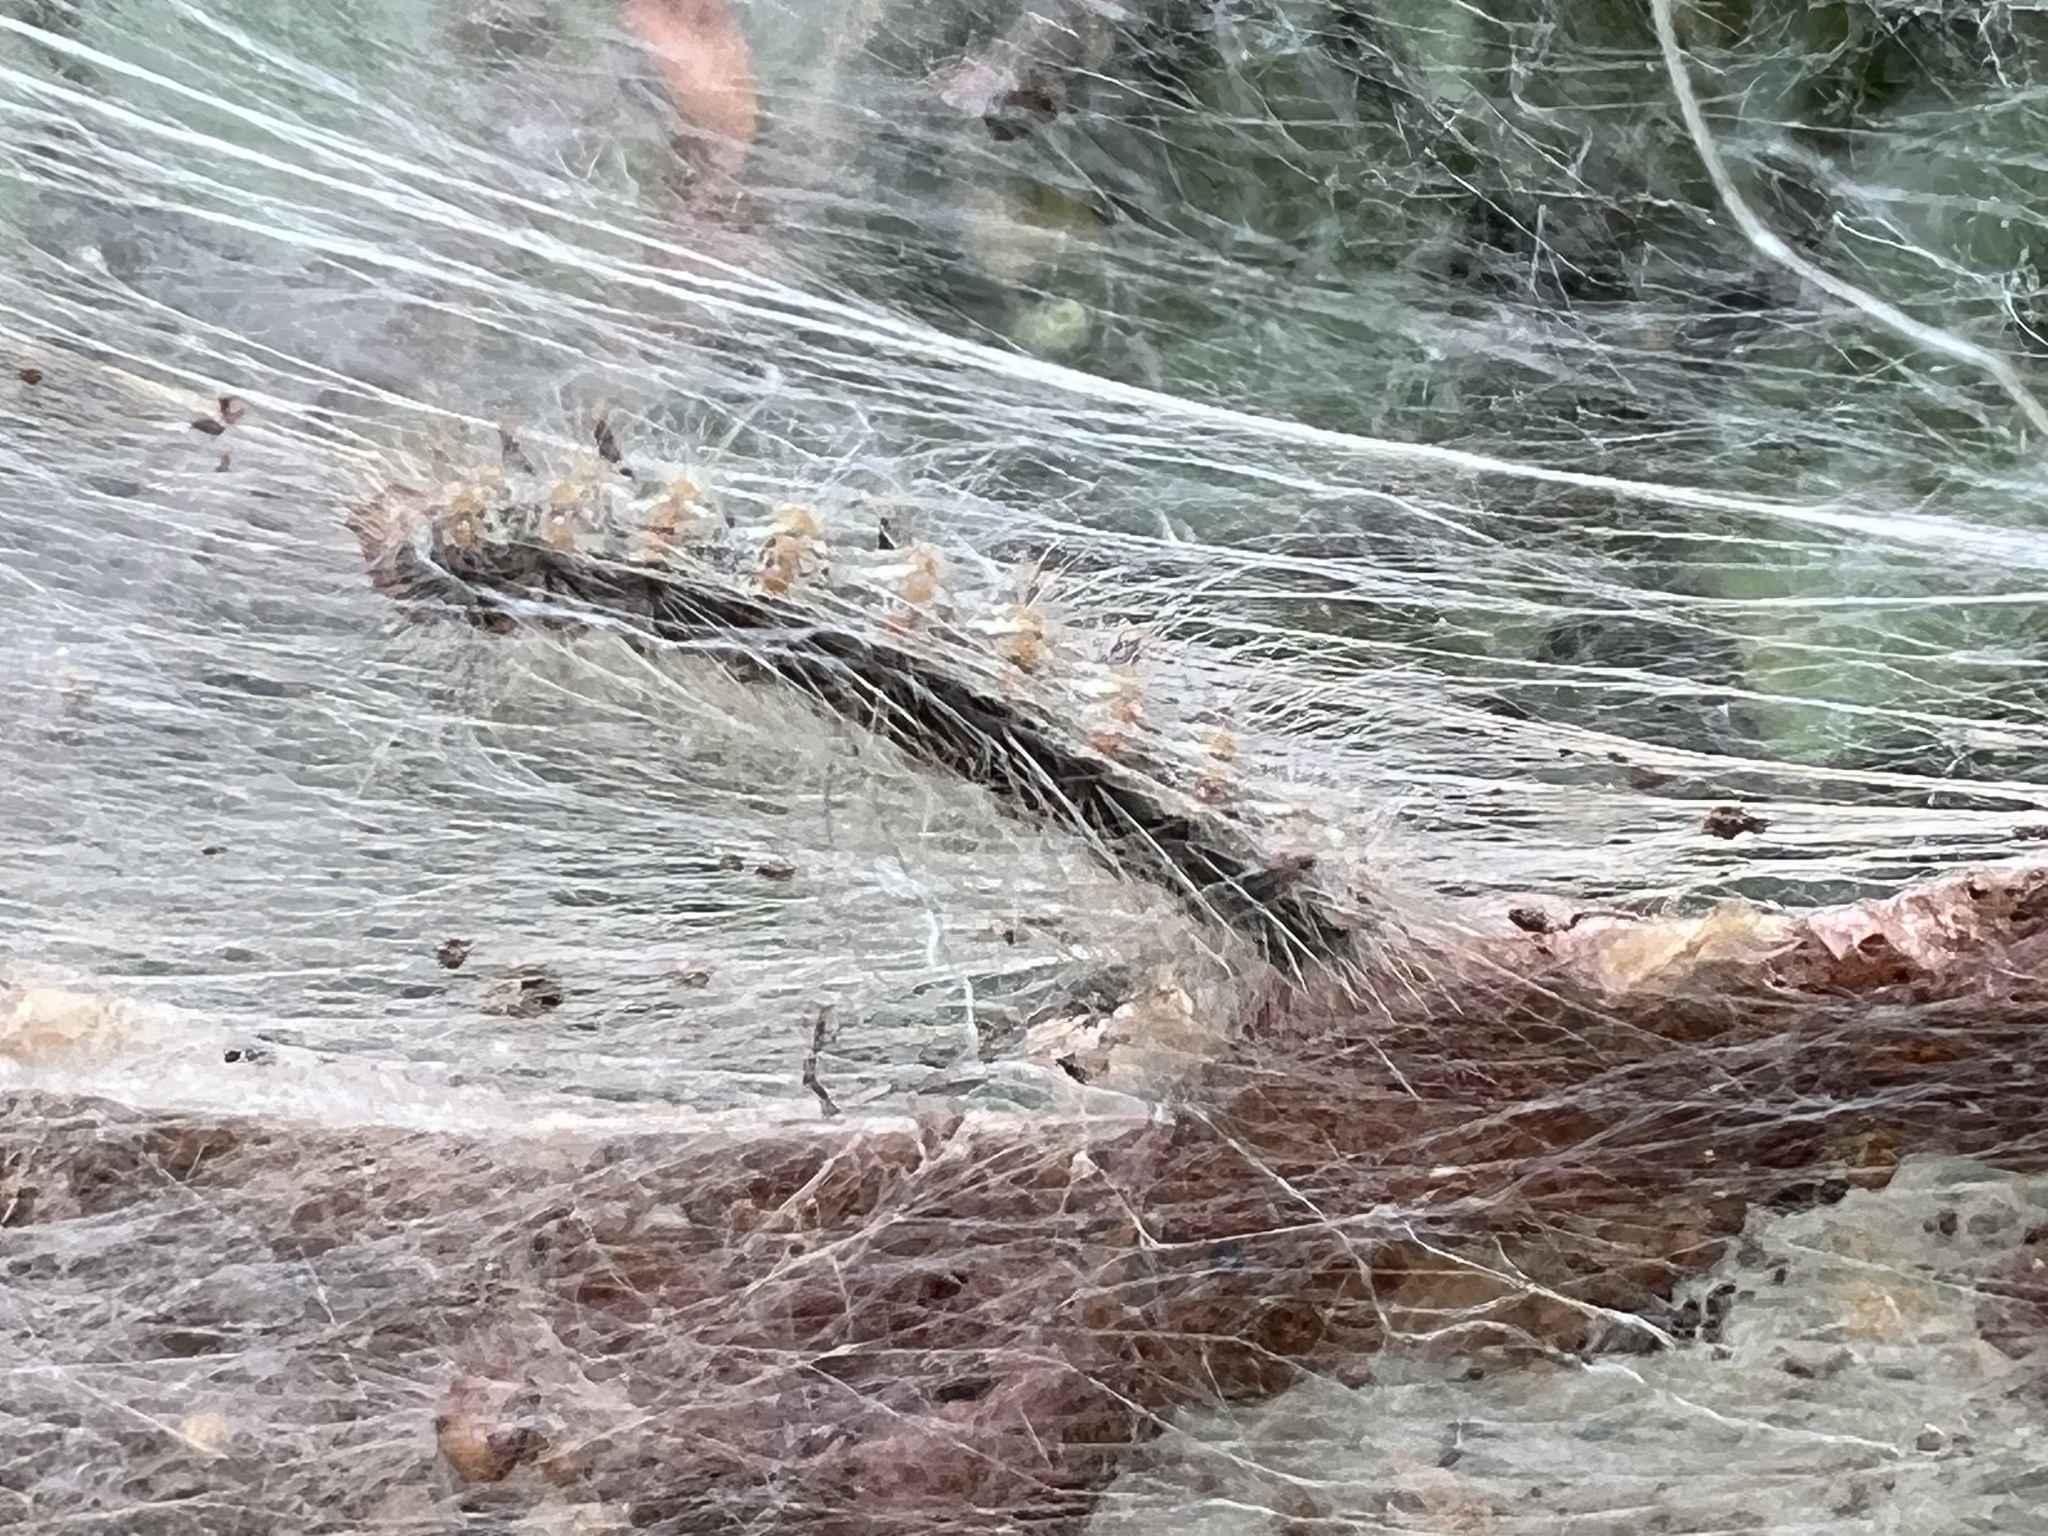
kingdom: Animalia
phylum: Arthropoda
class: Insecta
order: Lepidoptera
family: Erebidae
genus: Hyphantria
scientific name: Hyphantria cunea
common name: American white moth
